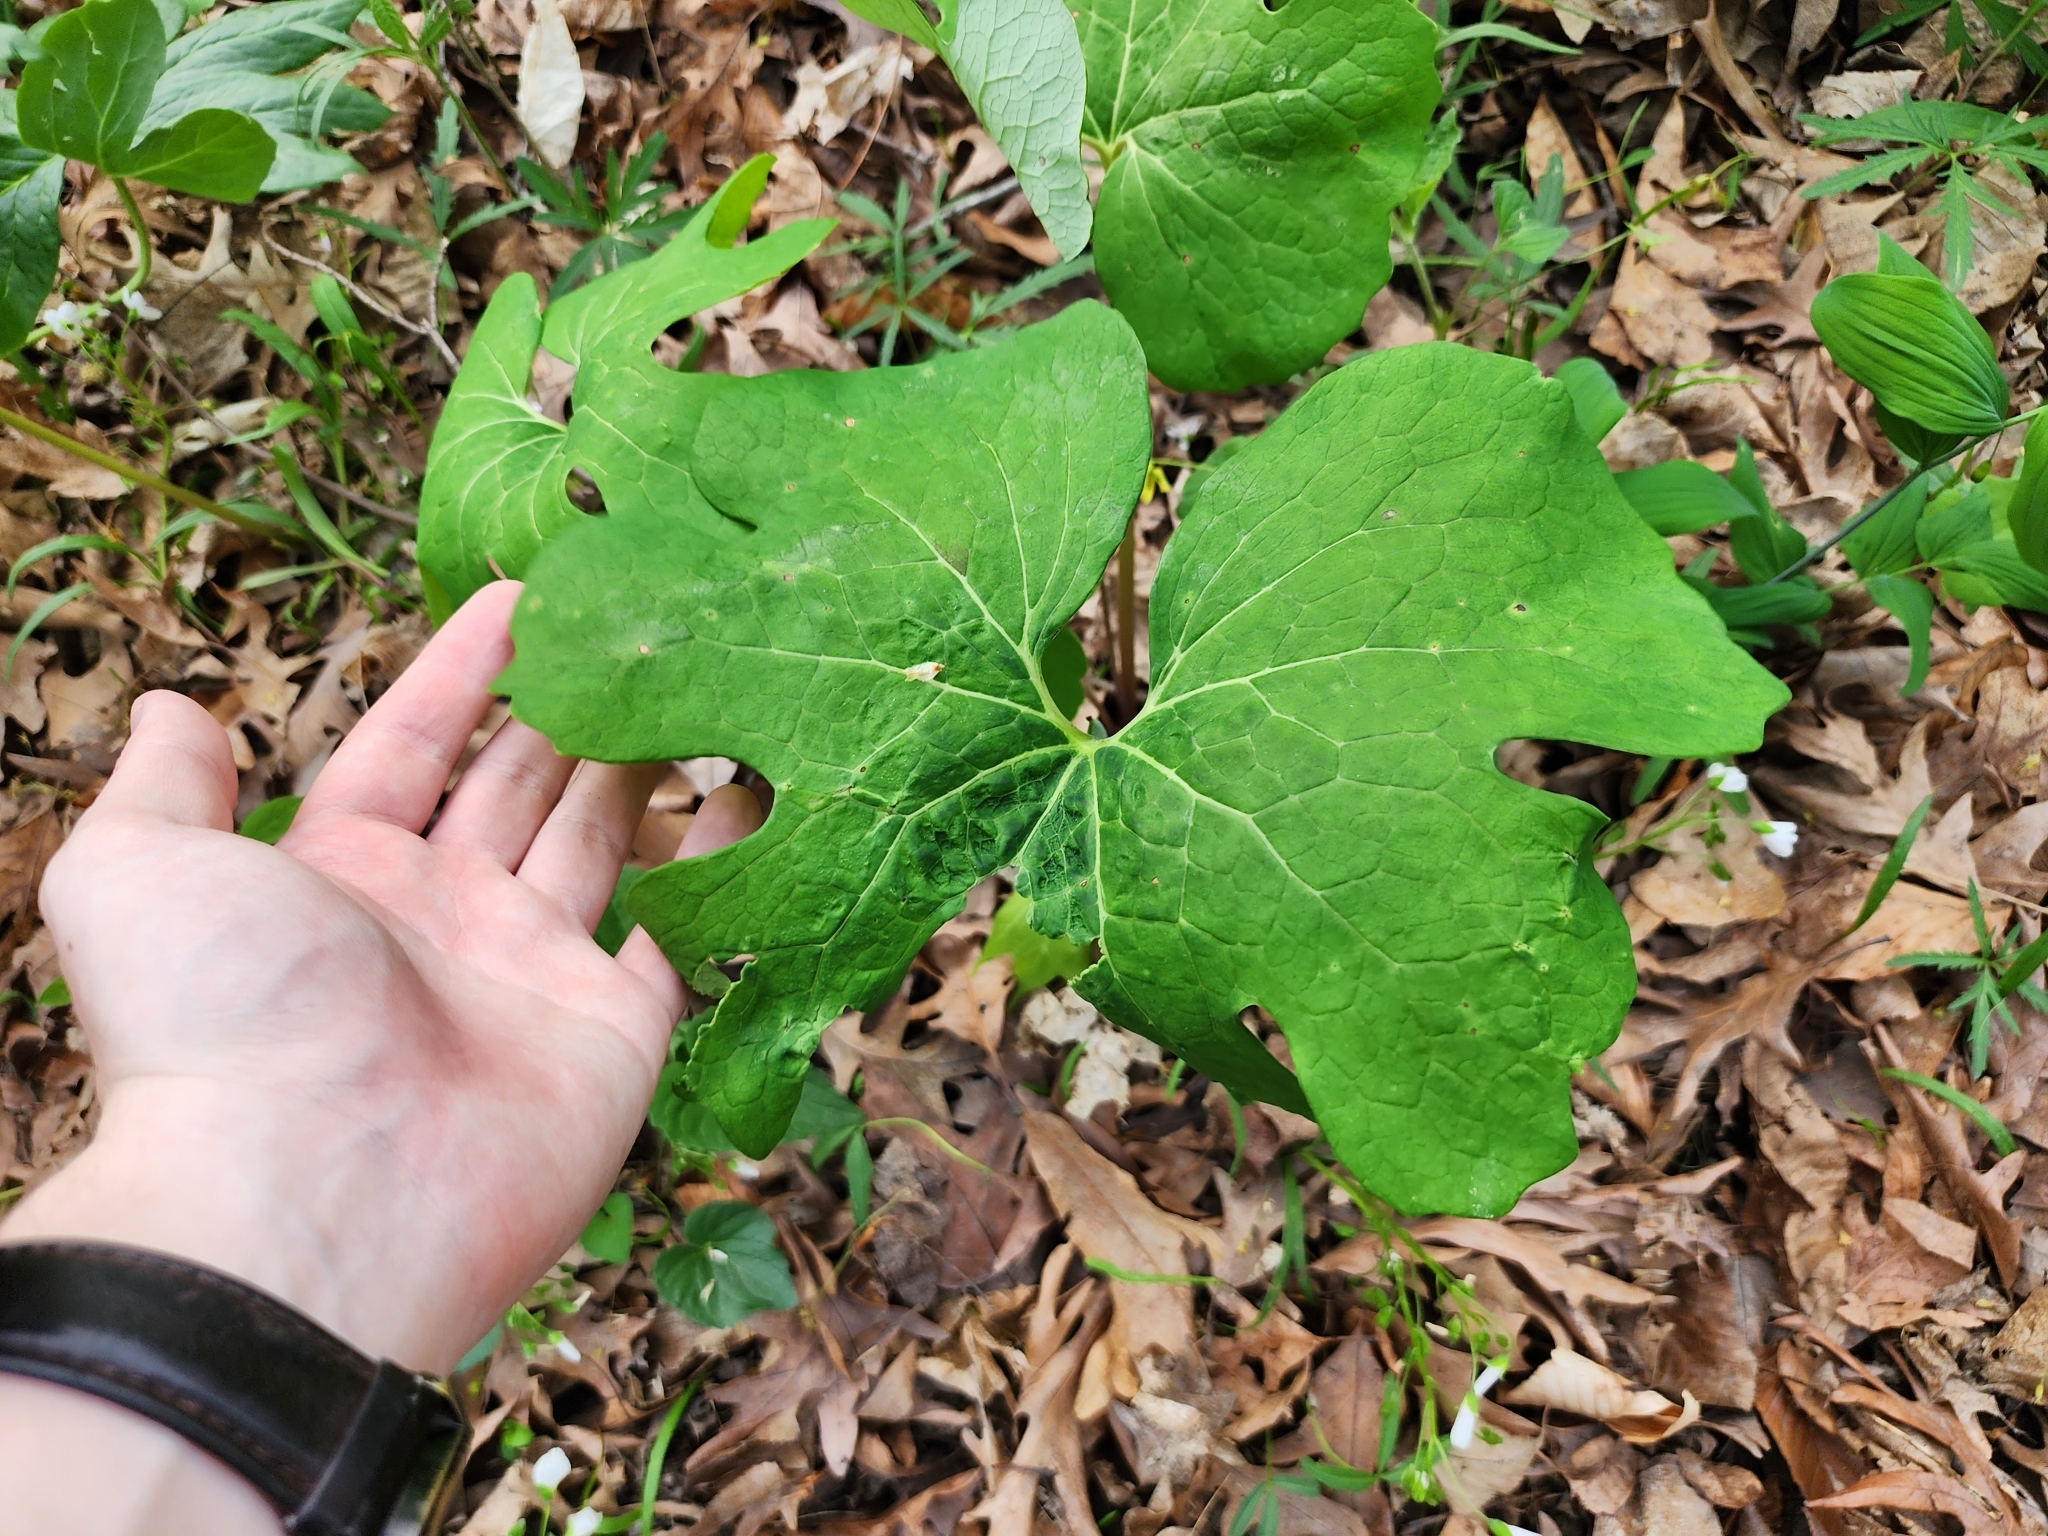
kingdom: Plantae
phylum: Tracheophyta
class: Magnoliopsida
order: Ranunculales
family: Papaveraceae
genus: Sanguinaria
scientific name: Sanguinaria canadensis
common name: Bloodroot
